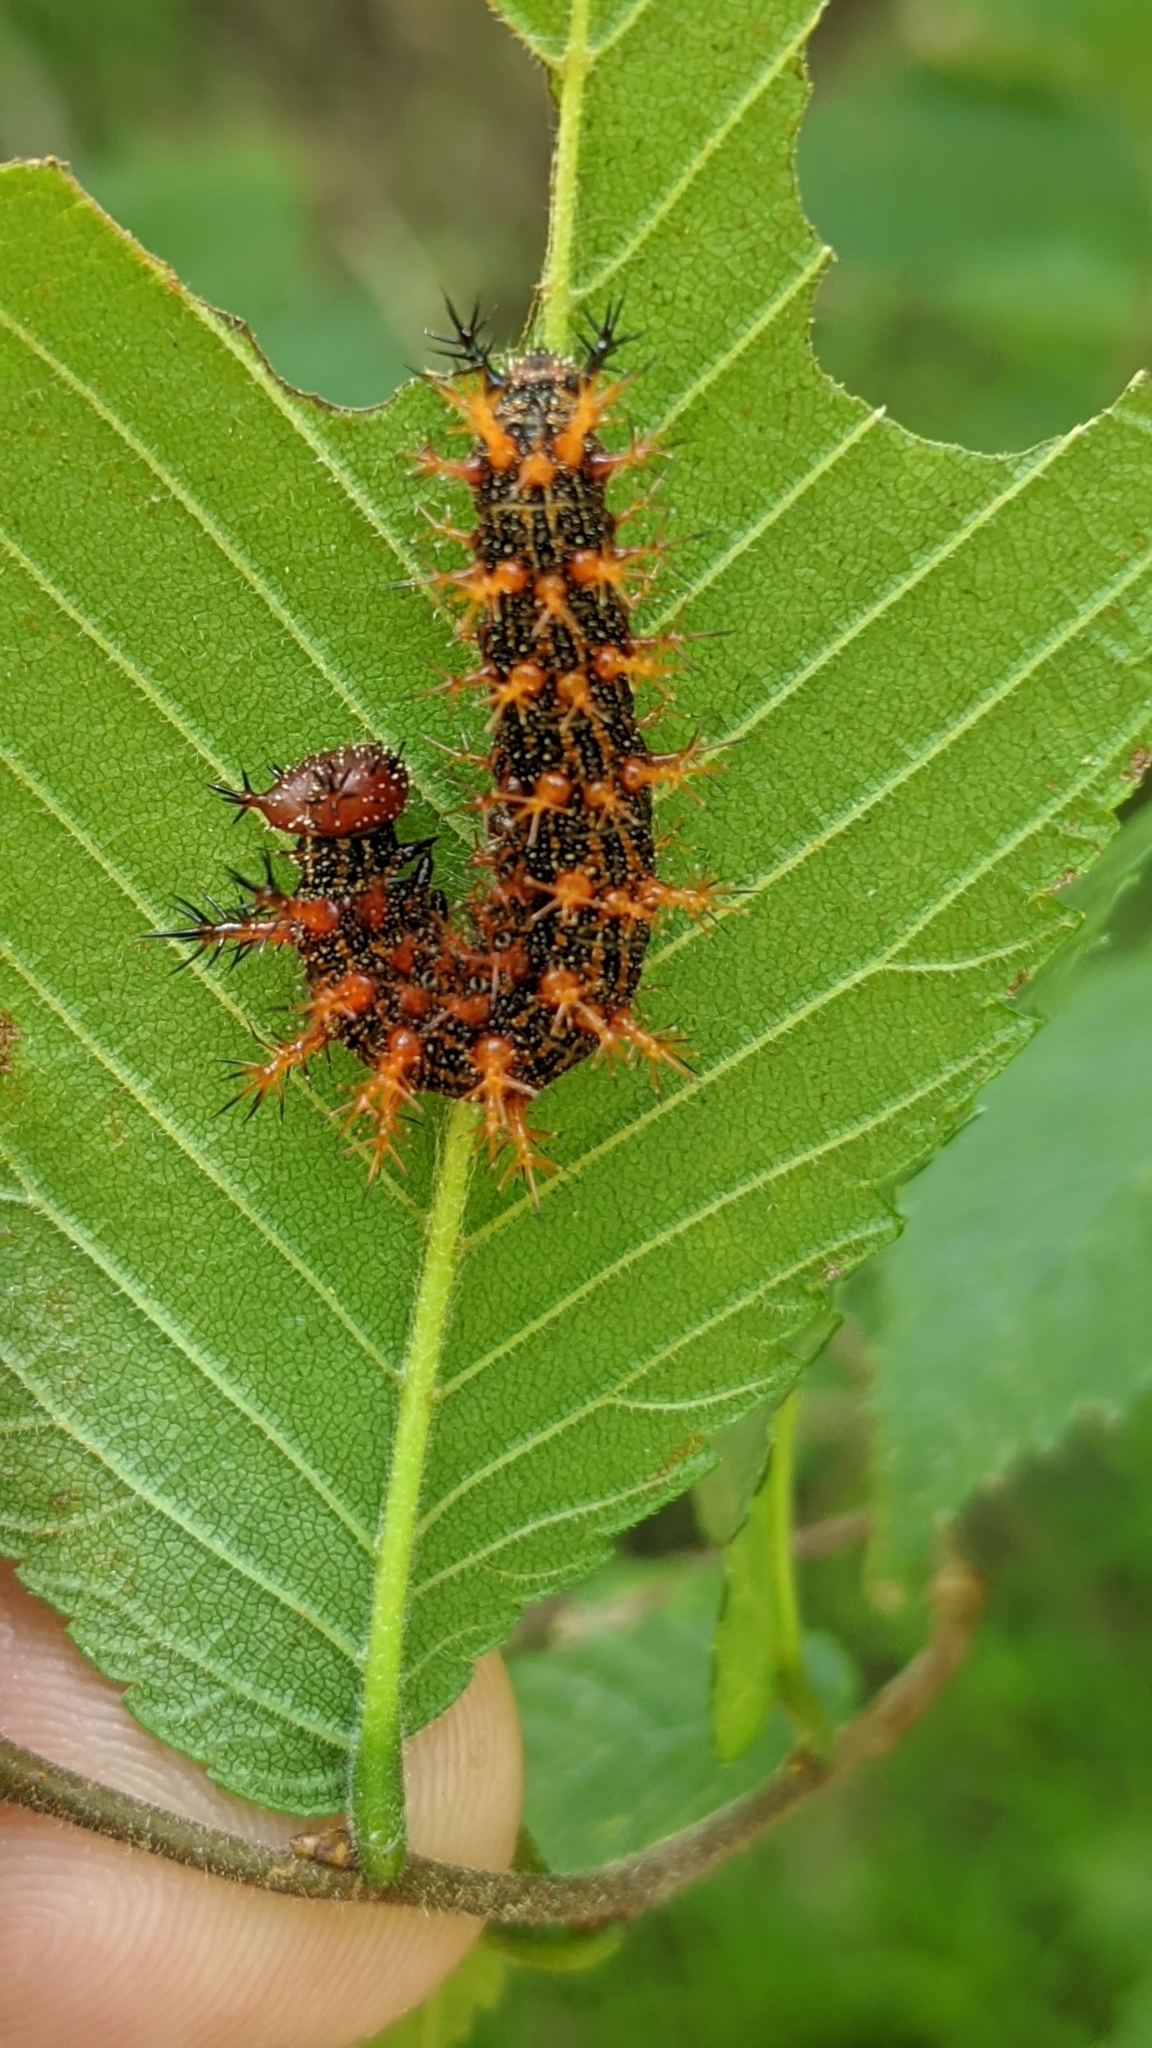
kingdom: Animalia
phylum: Arthropoda
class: Insecta
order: Lepidoptera
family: Nymphalidae
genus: Polygonia
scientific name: Polygonia interrogationis
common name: Question mark
